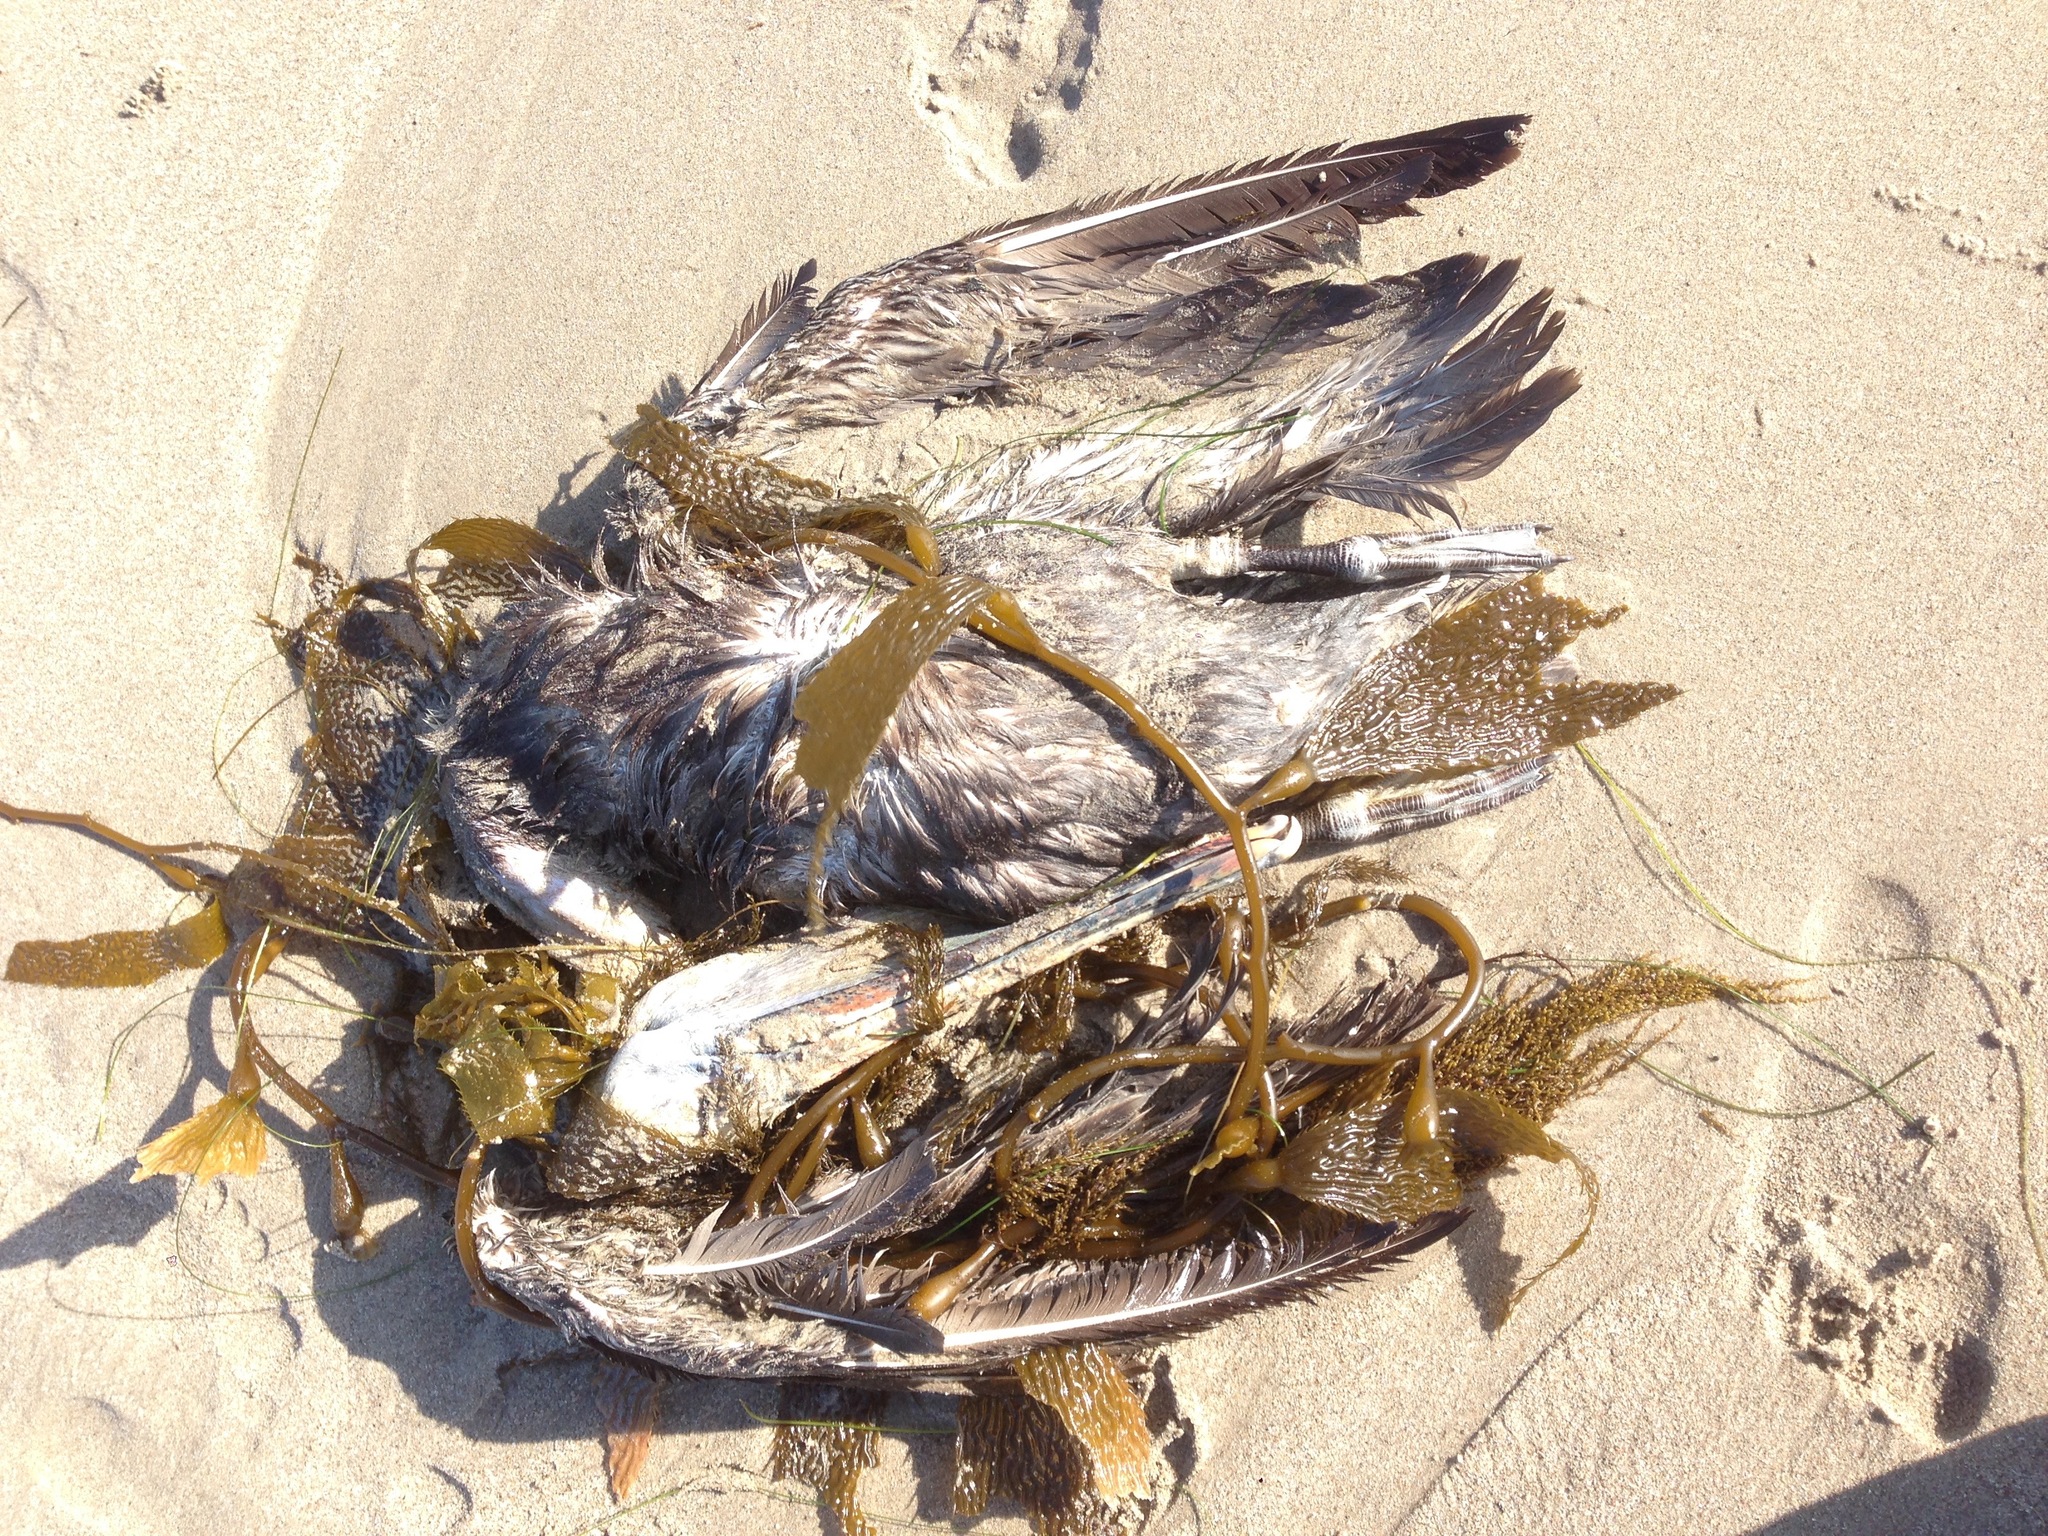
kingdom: Animalia
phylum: Chordata
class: Aves
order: Pelecaniformes
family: Pelecanidae
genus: Pelecanus
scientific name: Pelecanus occidentalis
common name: Brown pelican
